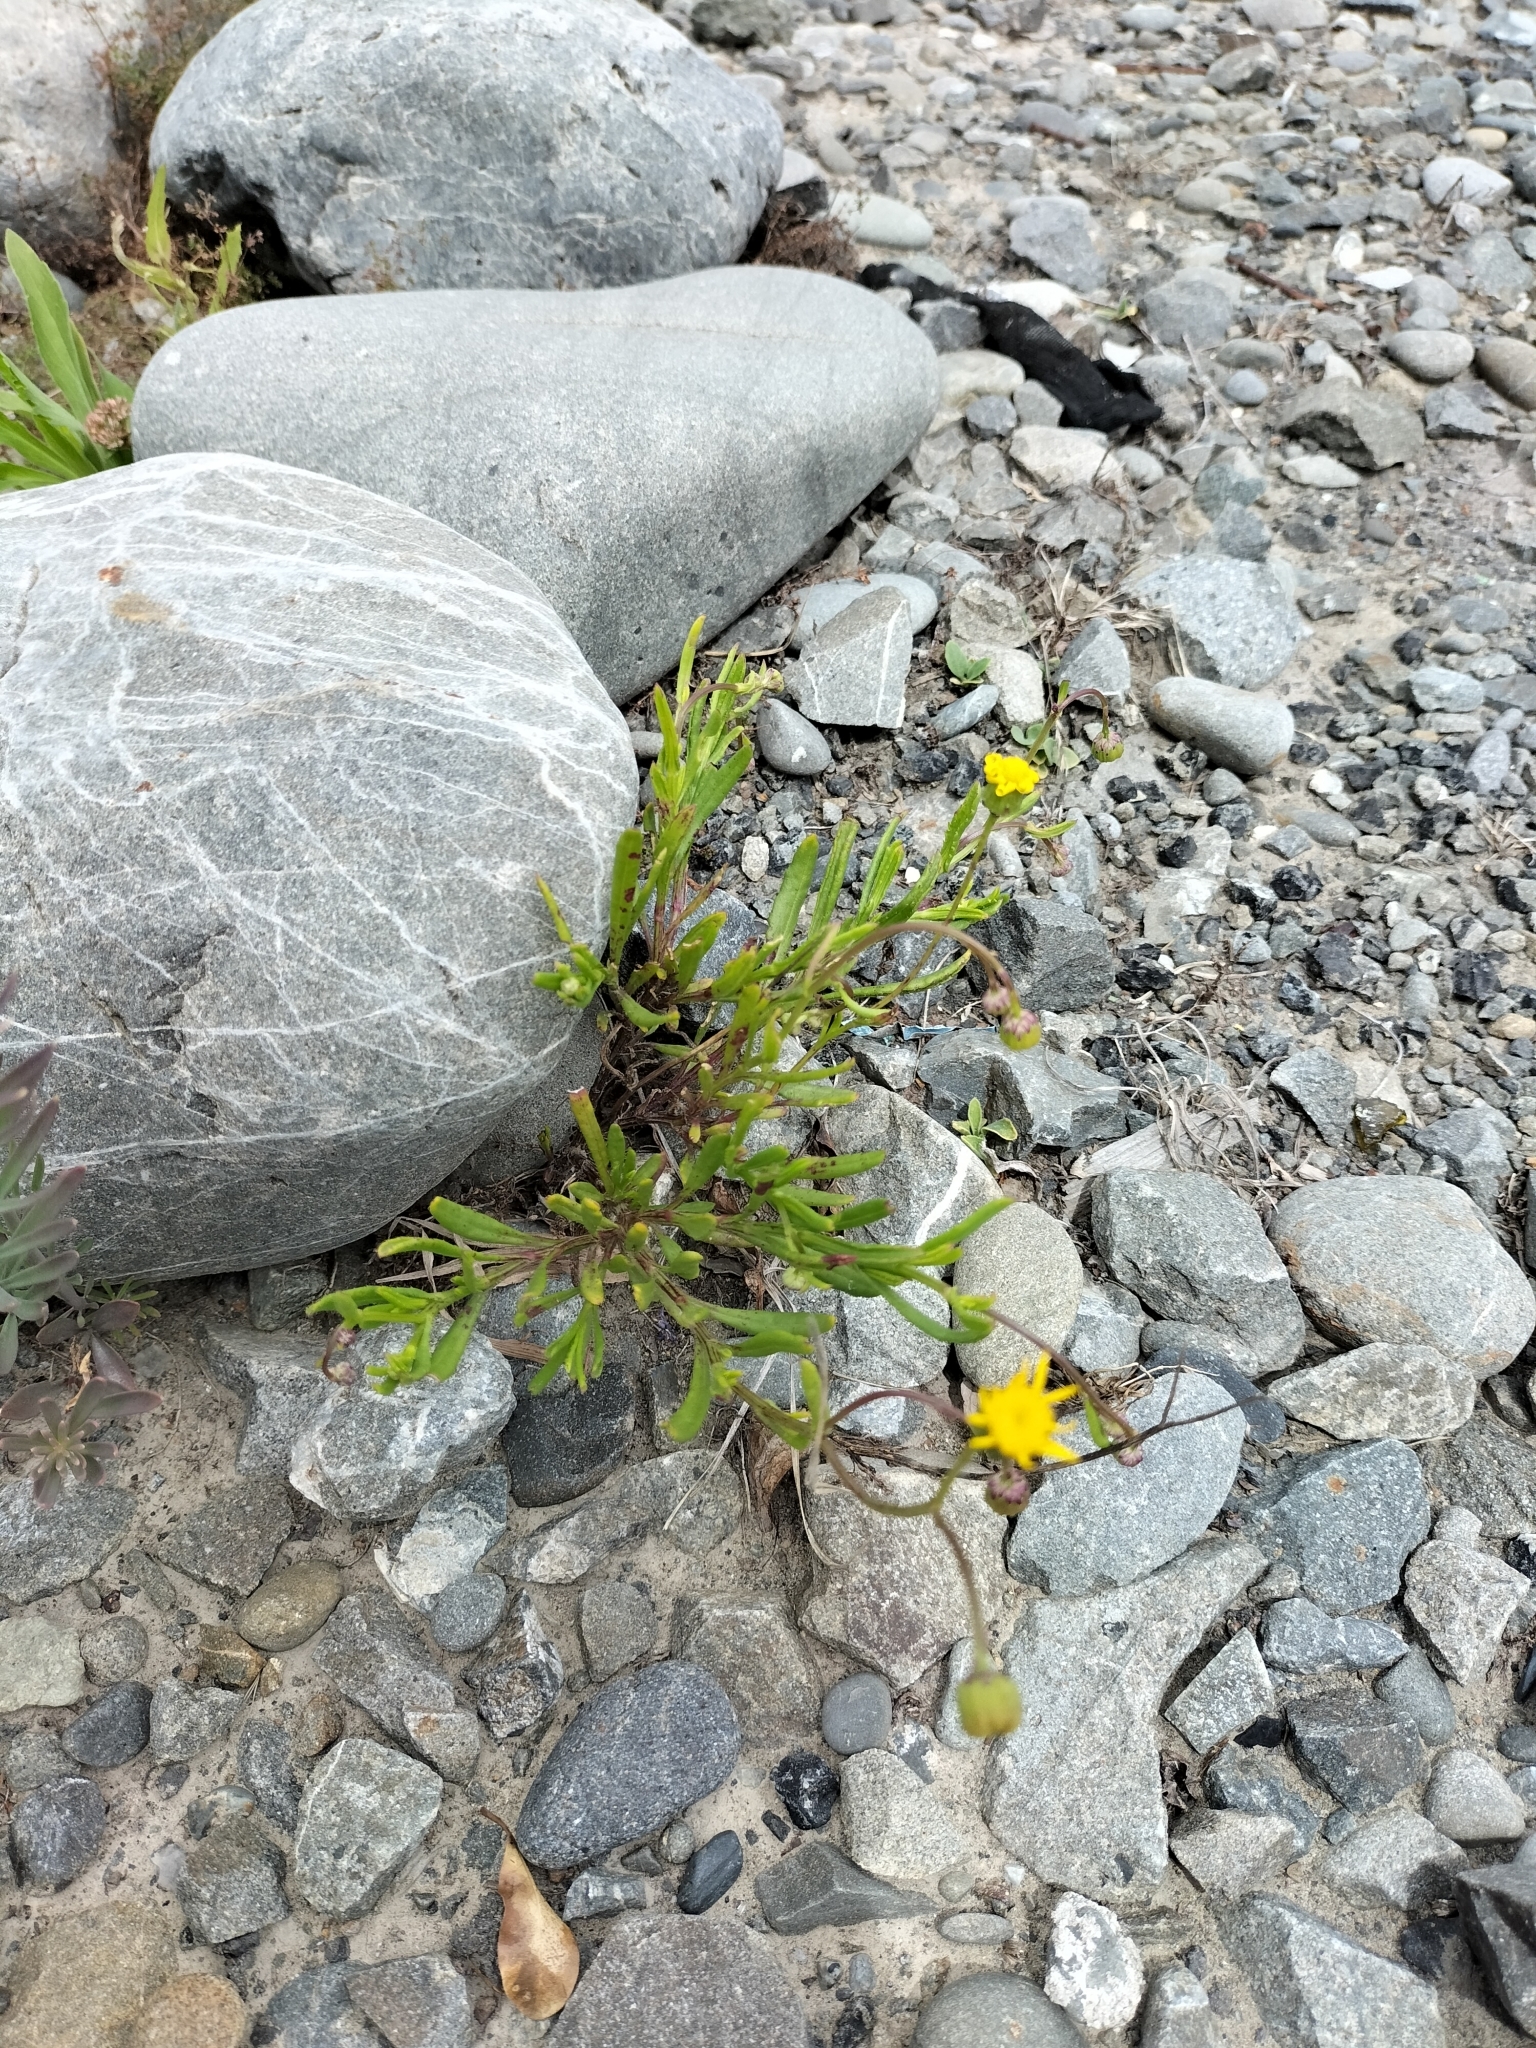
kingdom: Plantae
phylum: Tracheophyta
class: Magnoliopsida
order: Asterales
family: Asteraceae
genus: Senecio
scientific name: Senecio skirrhodon
